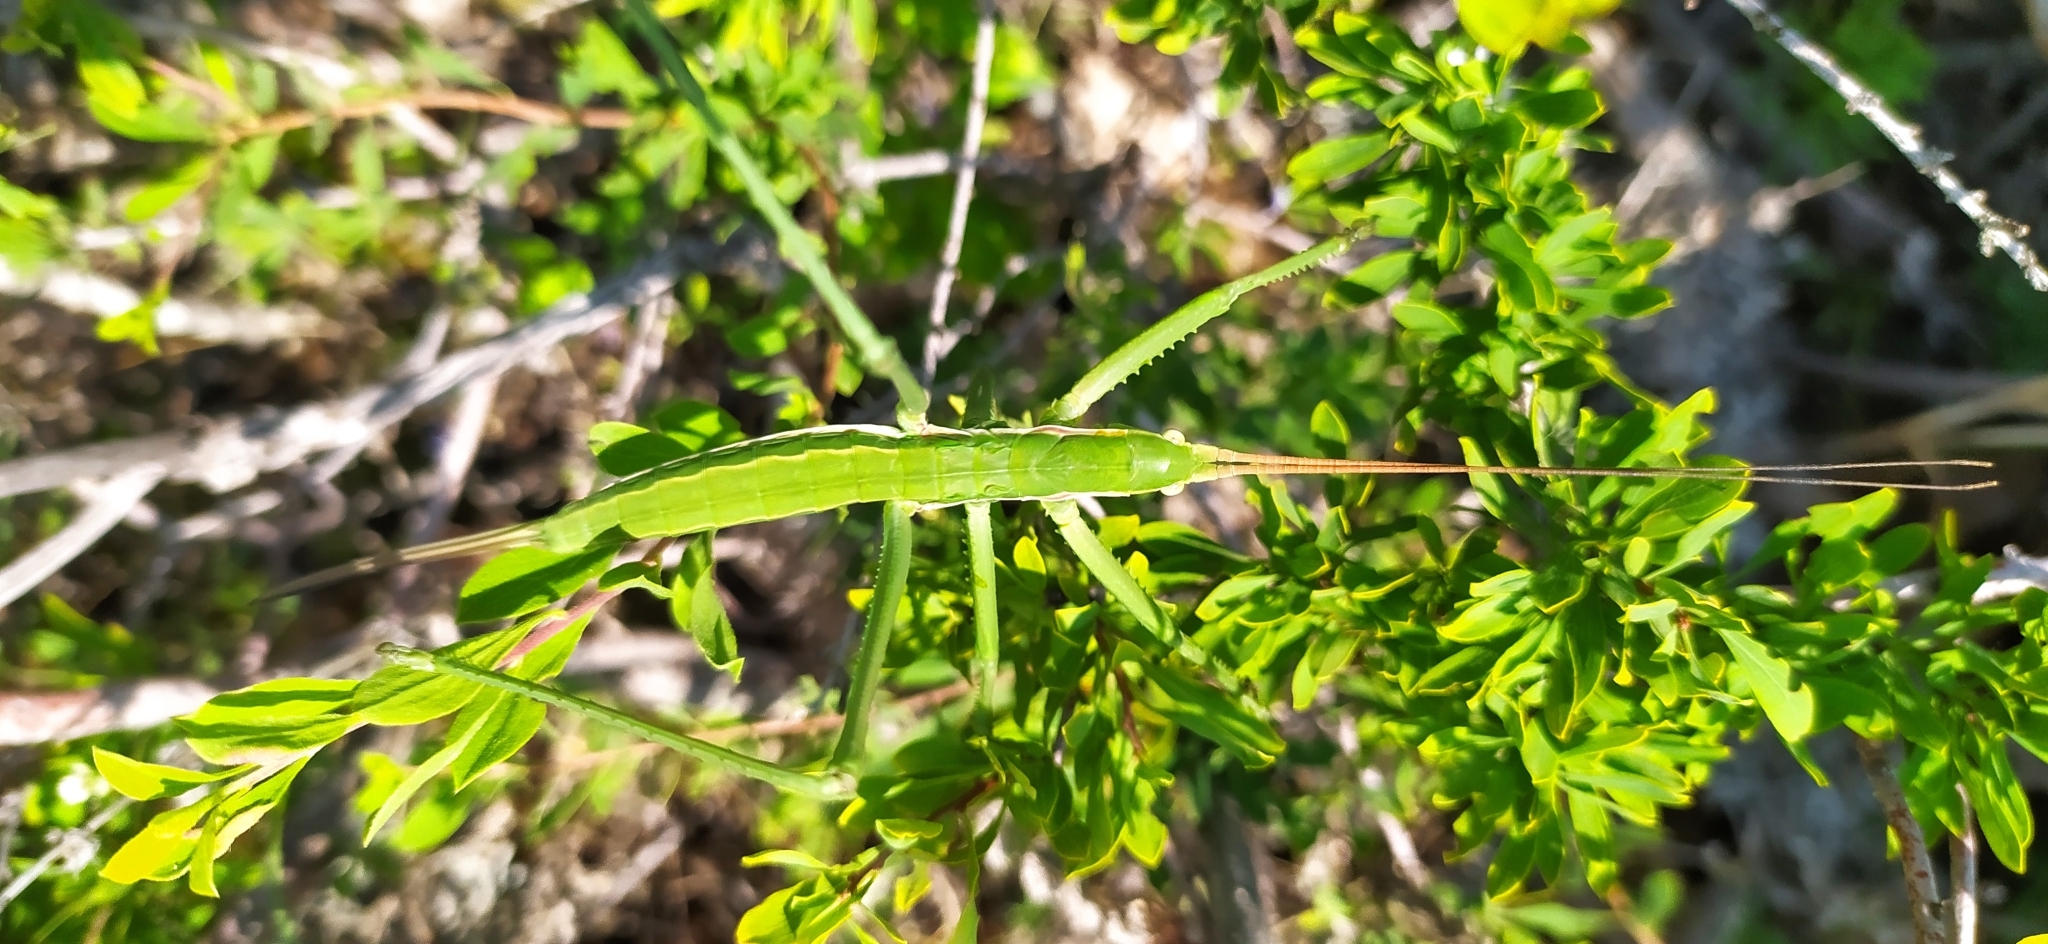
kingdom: Animalia
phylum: Arthropoda
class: Insecta
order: Orthoptera
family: Tettigoniidae
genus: Saga
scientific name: Saga pedo
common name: Common predatory bush-cricket
